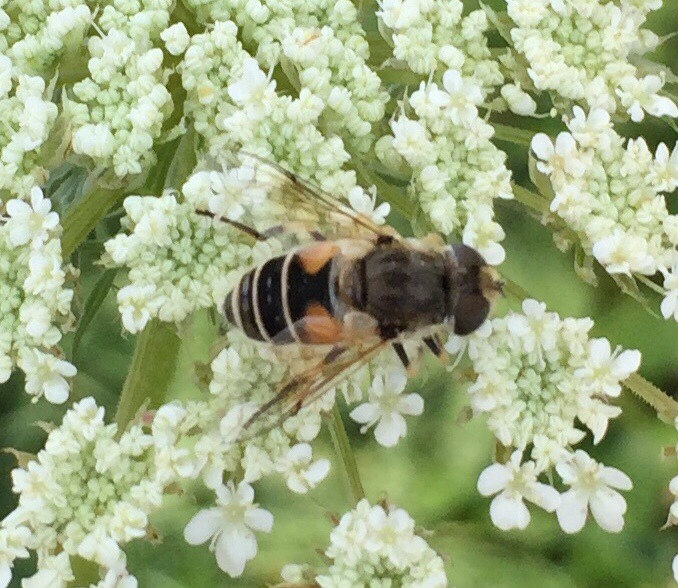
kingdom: Animalia
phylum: Arthropoda
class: Insecta
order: Diptera
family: Syrphidae
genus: Eristalis
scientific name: Eristalis arbustorum
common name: Hover fly
